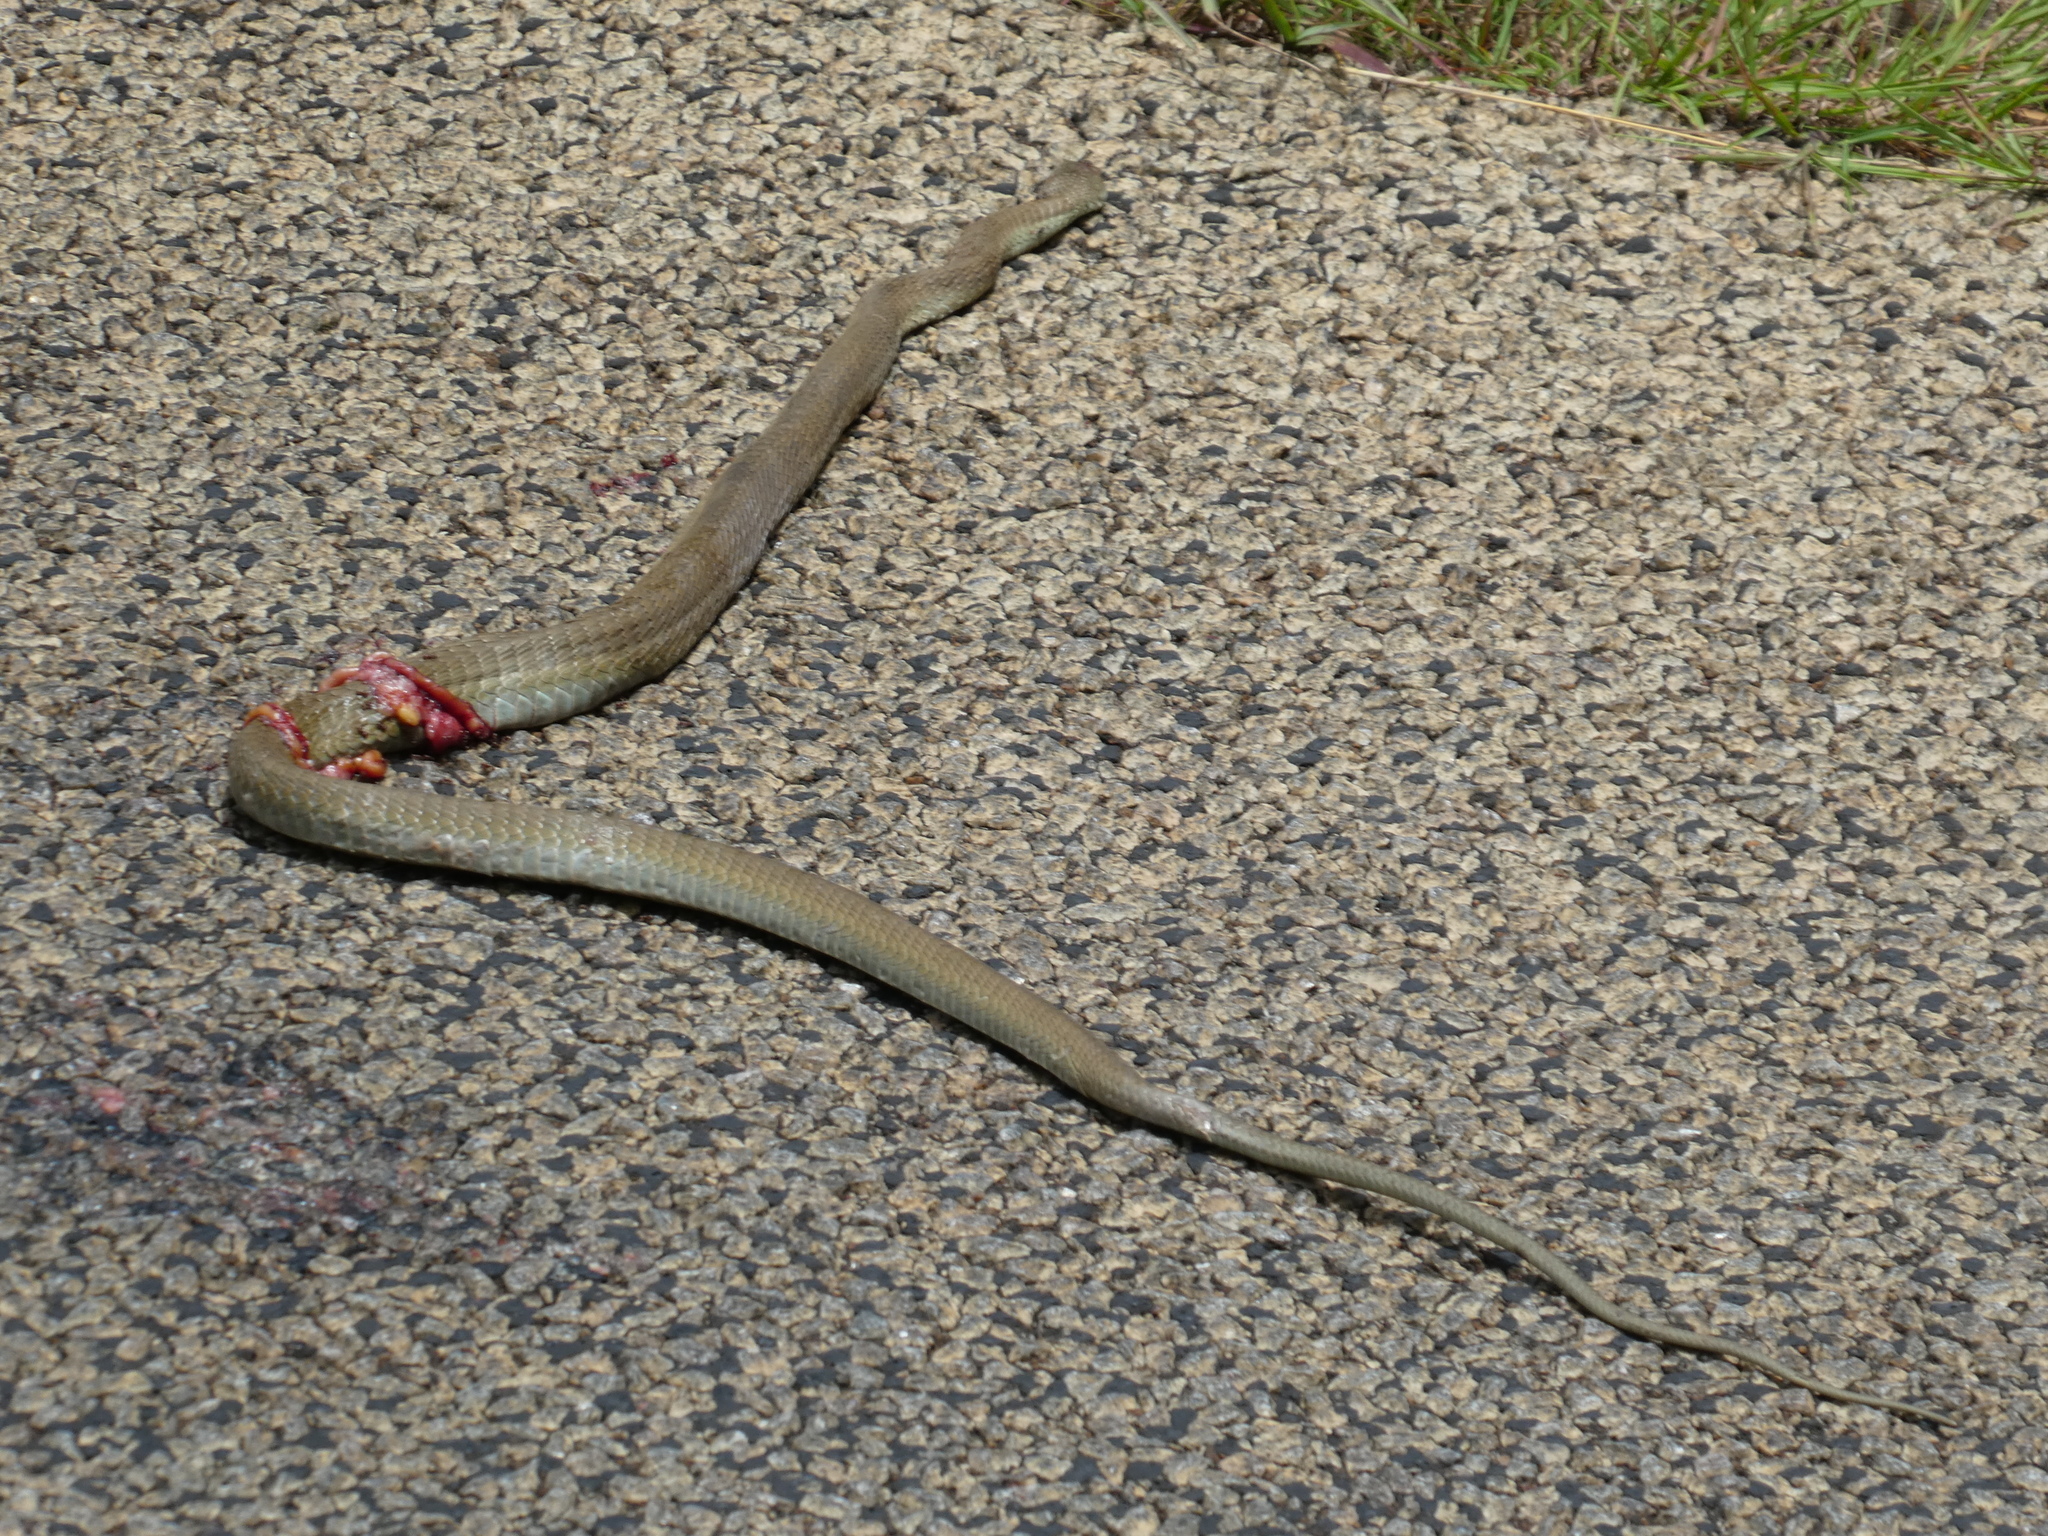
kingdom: Animalia
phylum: Chordata
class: Squamata
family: Psammophiidae
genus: Psammophis
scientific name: Psammophis mossambicus
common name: Olive grass snake
